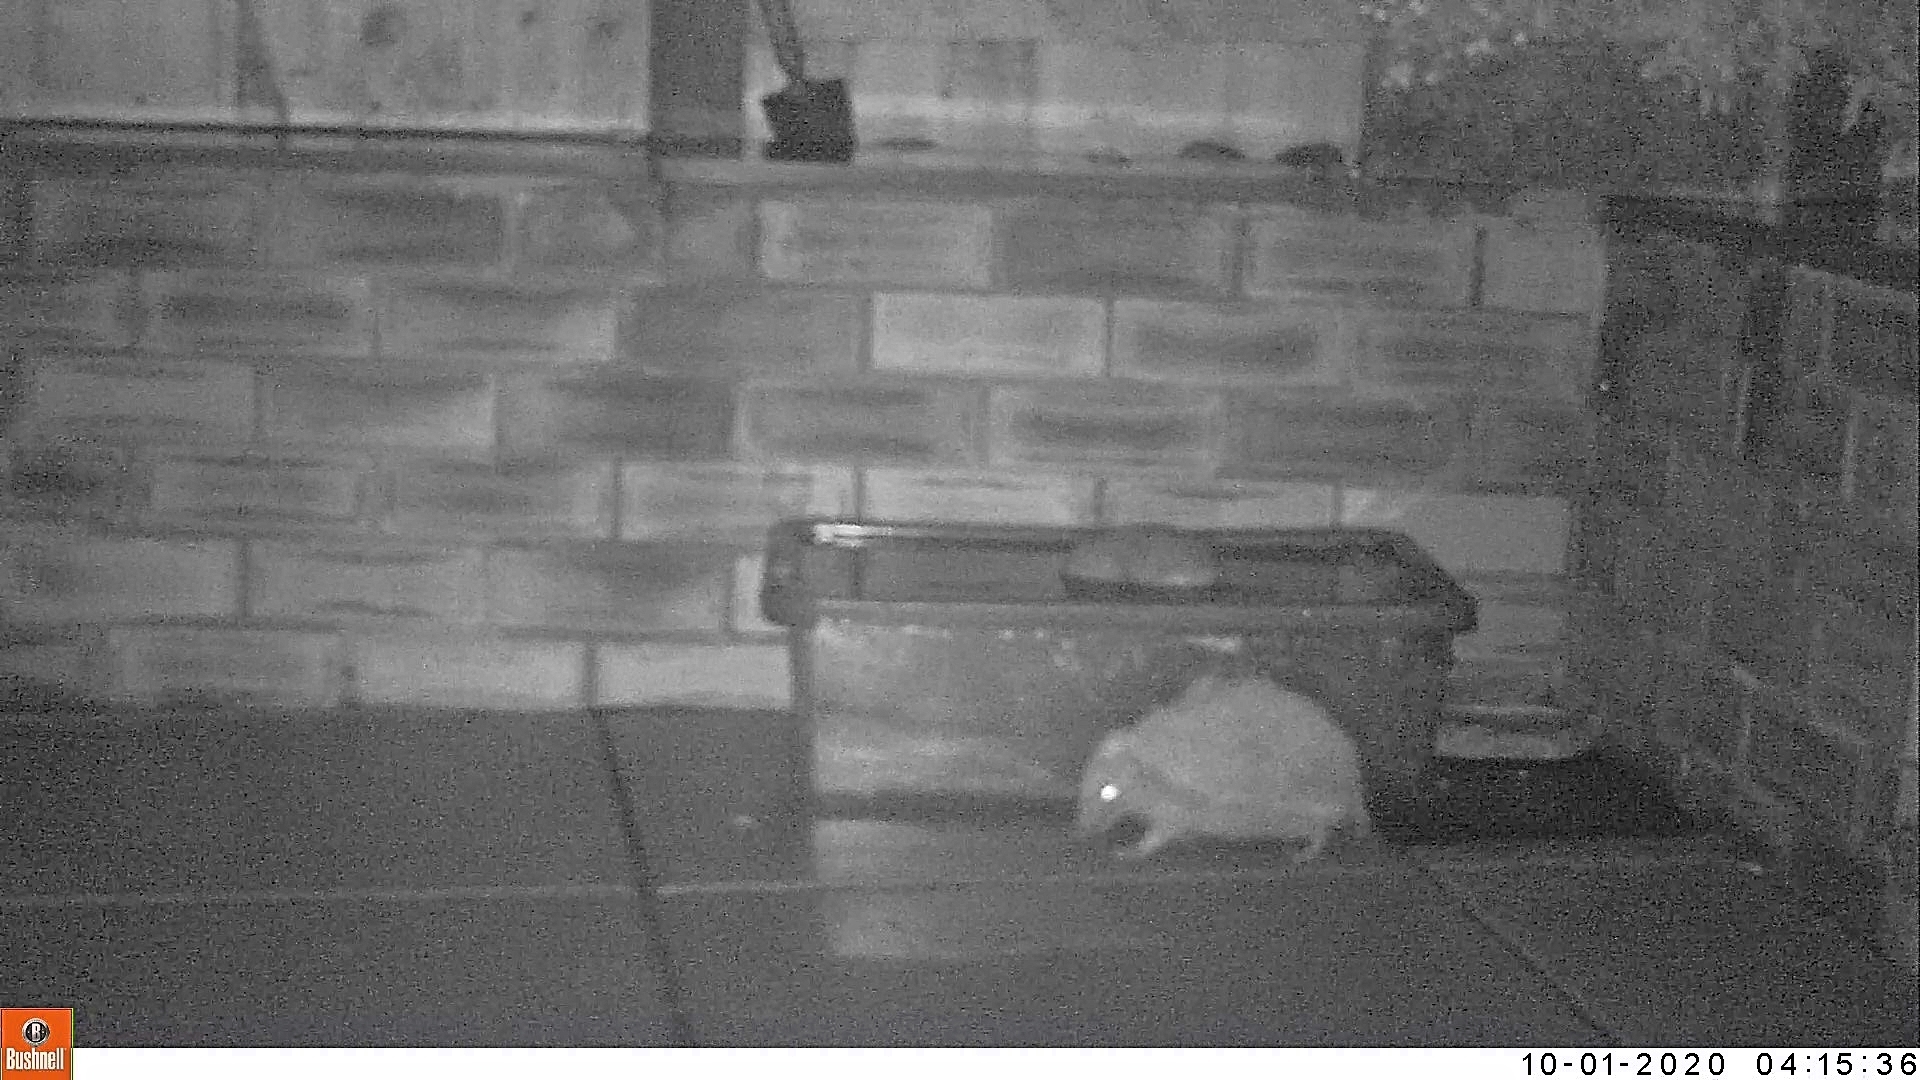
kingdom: Animalia
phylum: Chordata
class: Mammalia
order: Erinaceomorpha
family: Erinaceidae
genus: Erinaceus
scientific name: Erinaceus europaeus
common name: West european hedgehog
